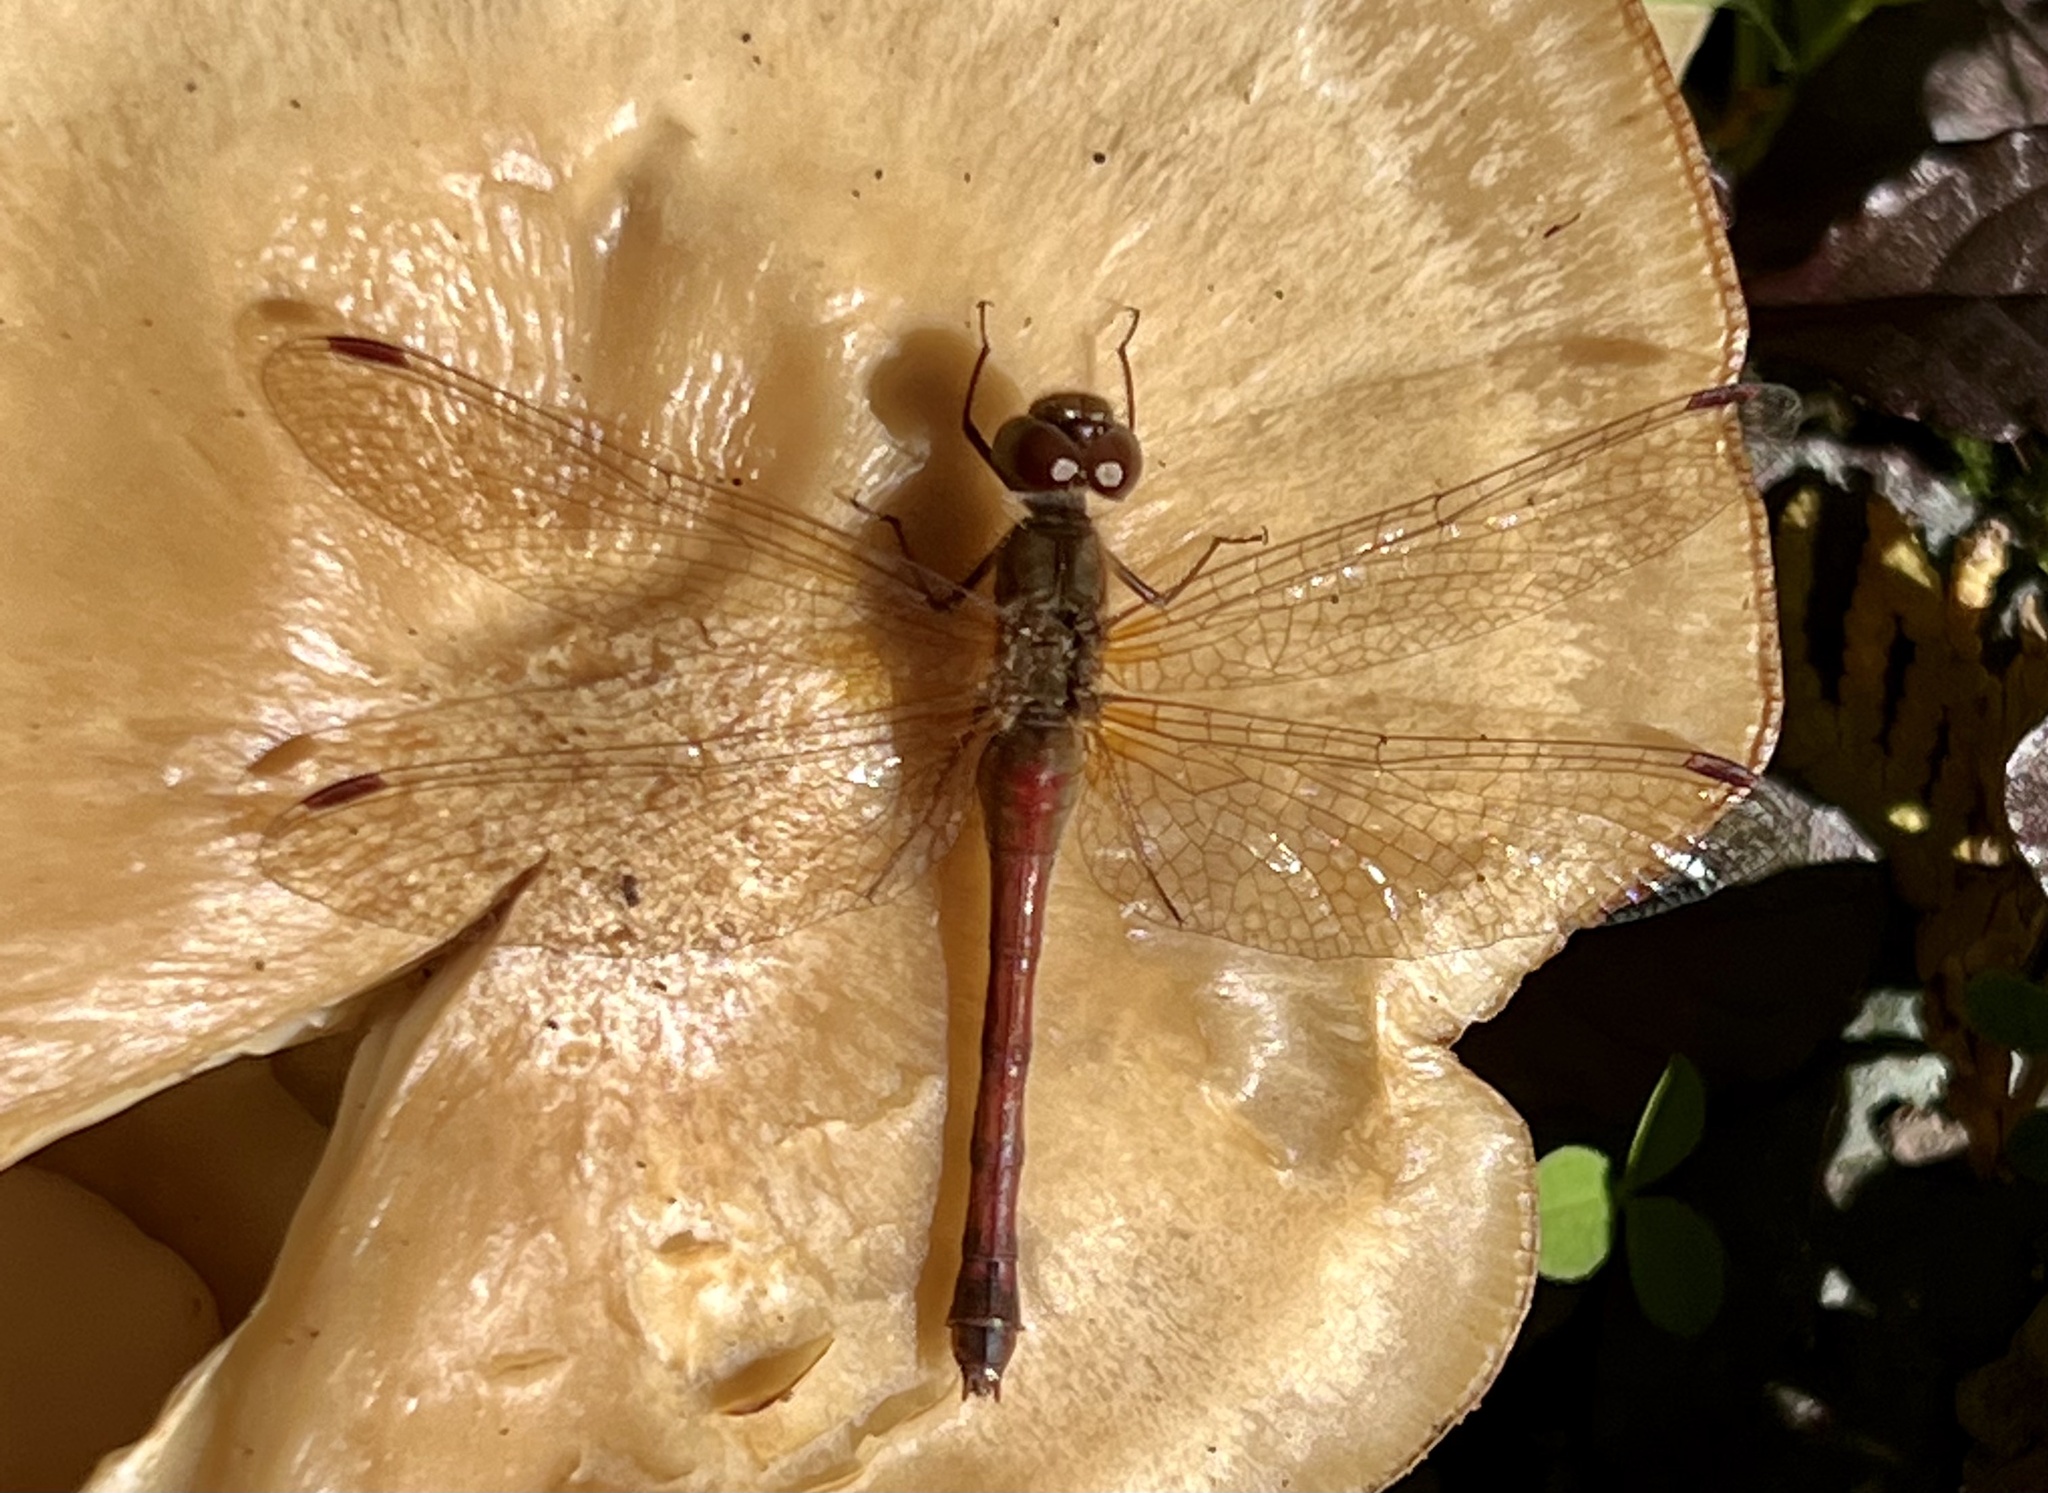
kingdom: Animalia
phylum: Arthropoda
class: Insecta
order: Odonata
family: Libellulidae
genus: Sympetrum
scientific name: Sympetrum vicinum
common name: Autumn meadowhawk
